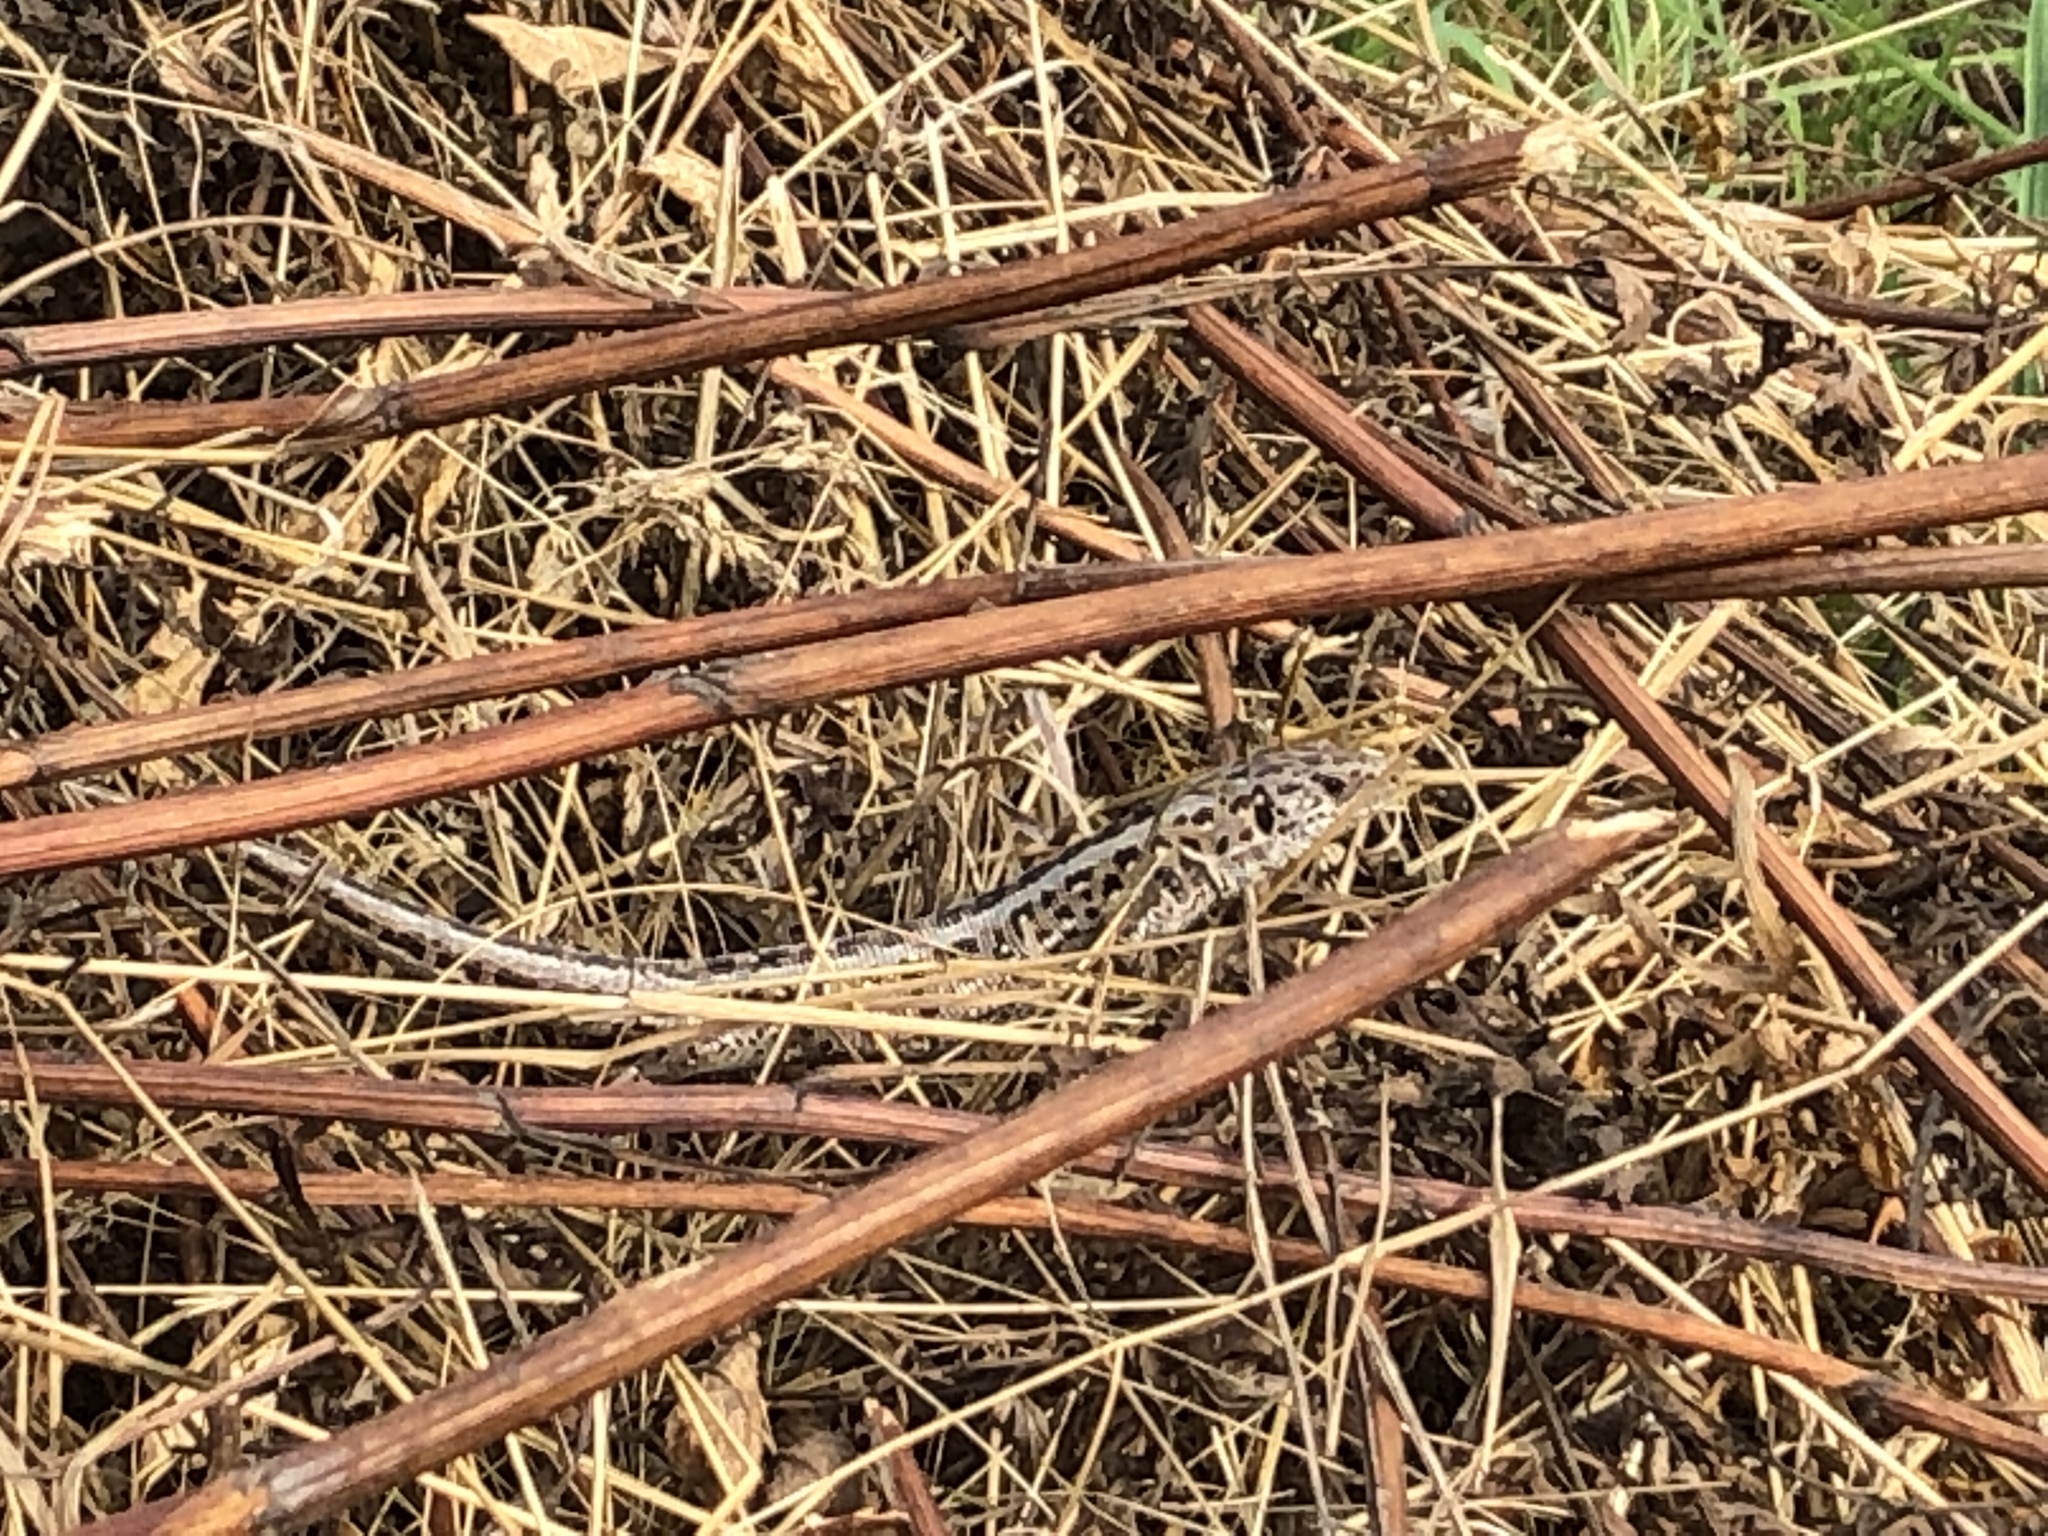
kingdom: Animalia
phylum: Chordata
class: Squamata
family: Lacertidae
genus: Lacerta
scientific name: Lacerta agilis
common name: Sand lizard
